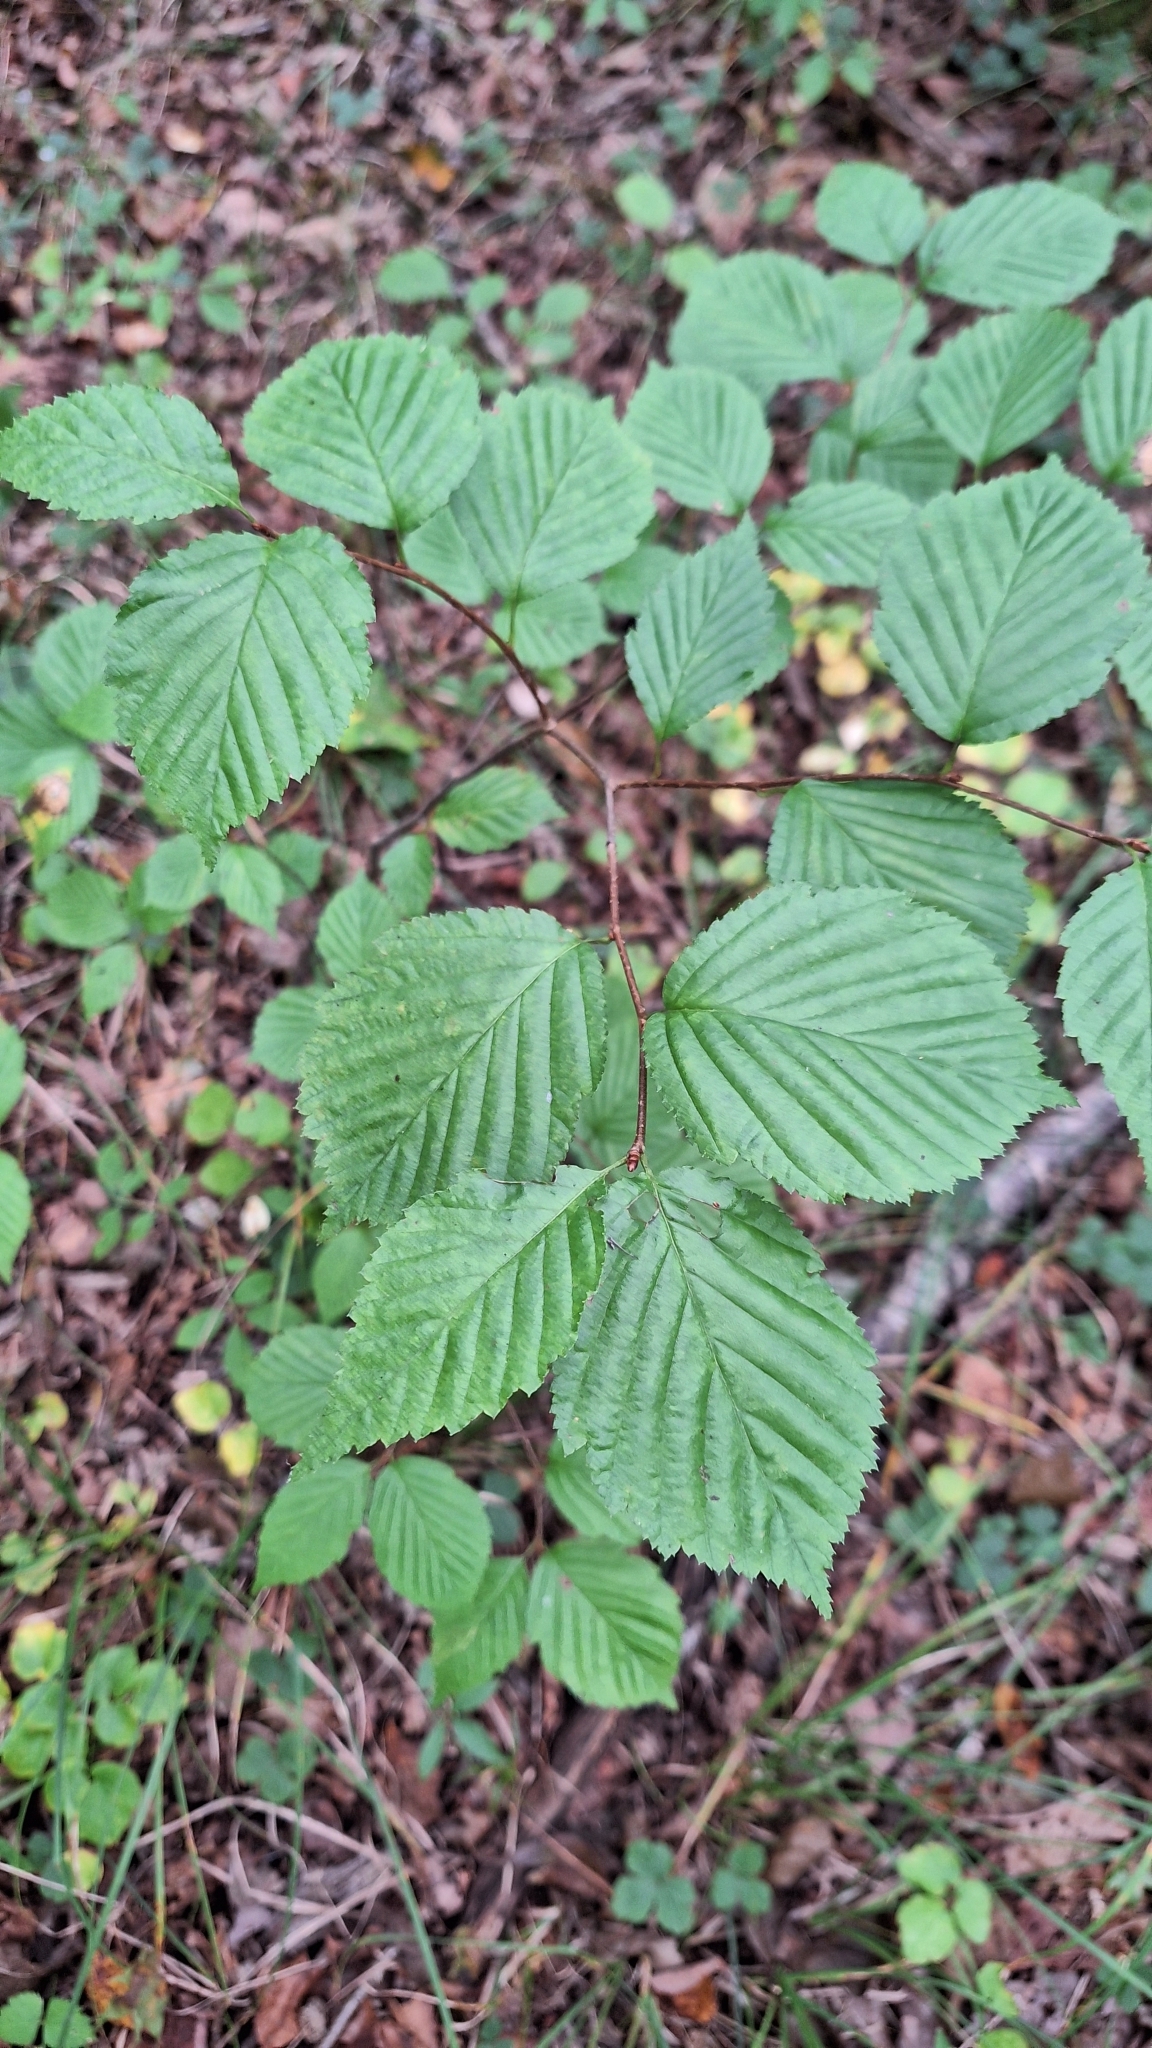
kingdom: Plantae
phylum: Tracheophyta
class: Magnoliopsida
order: Rosales
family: Rosaceae
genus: Sorbus
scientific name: Sorbus alnifolia
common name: Mountain-ash
